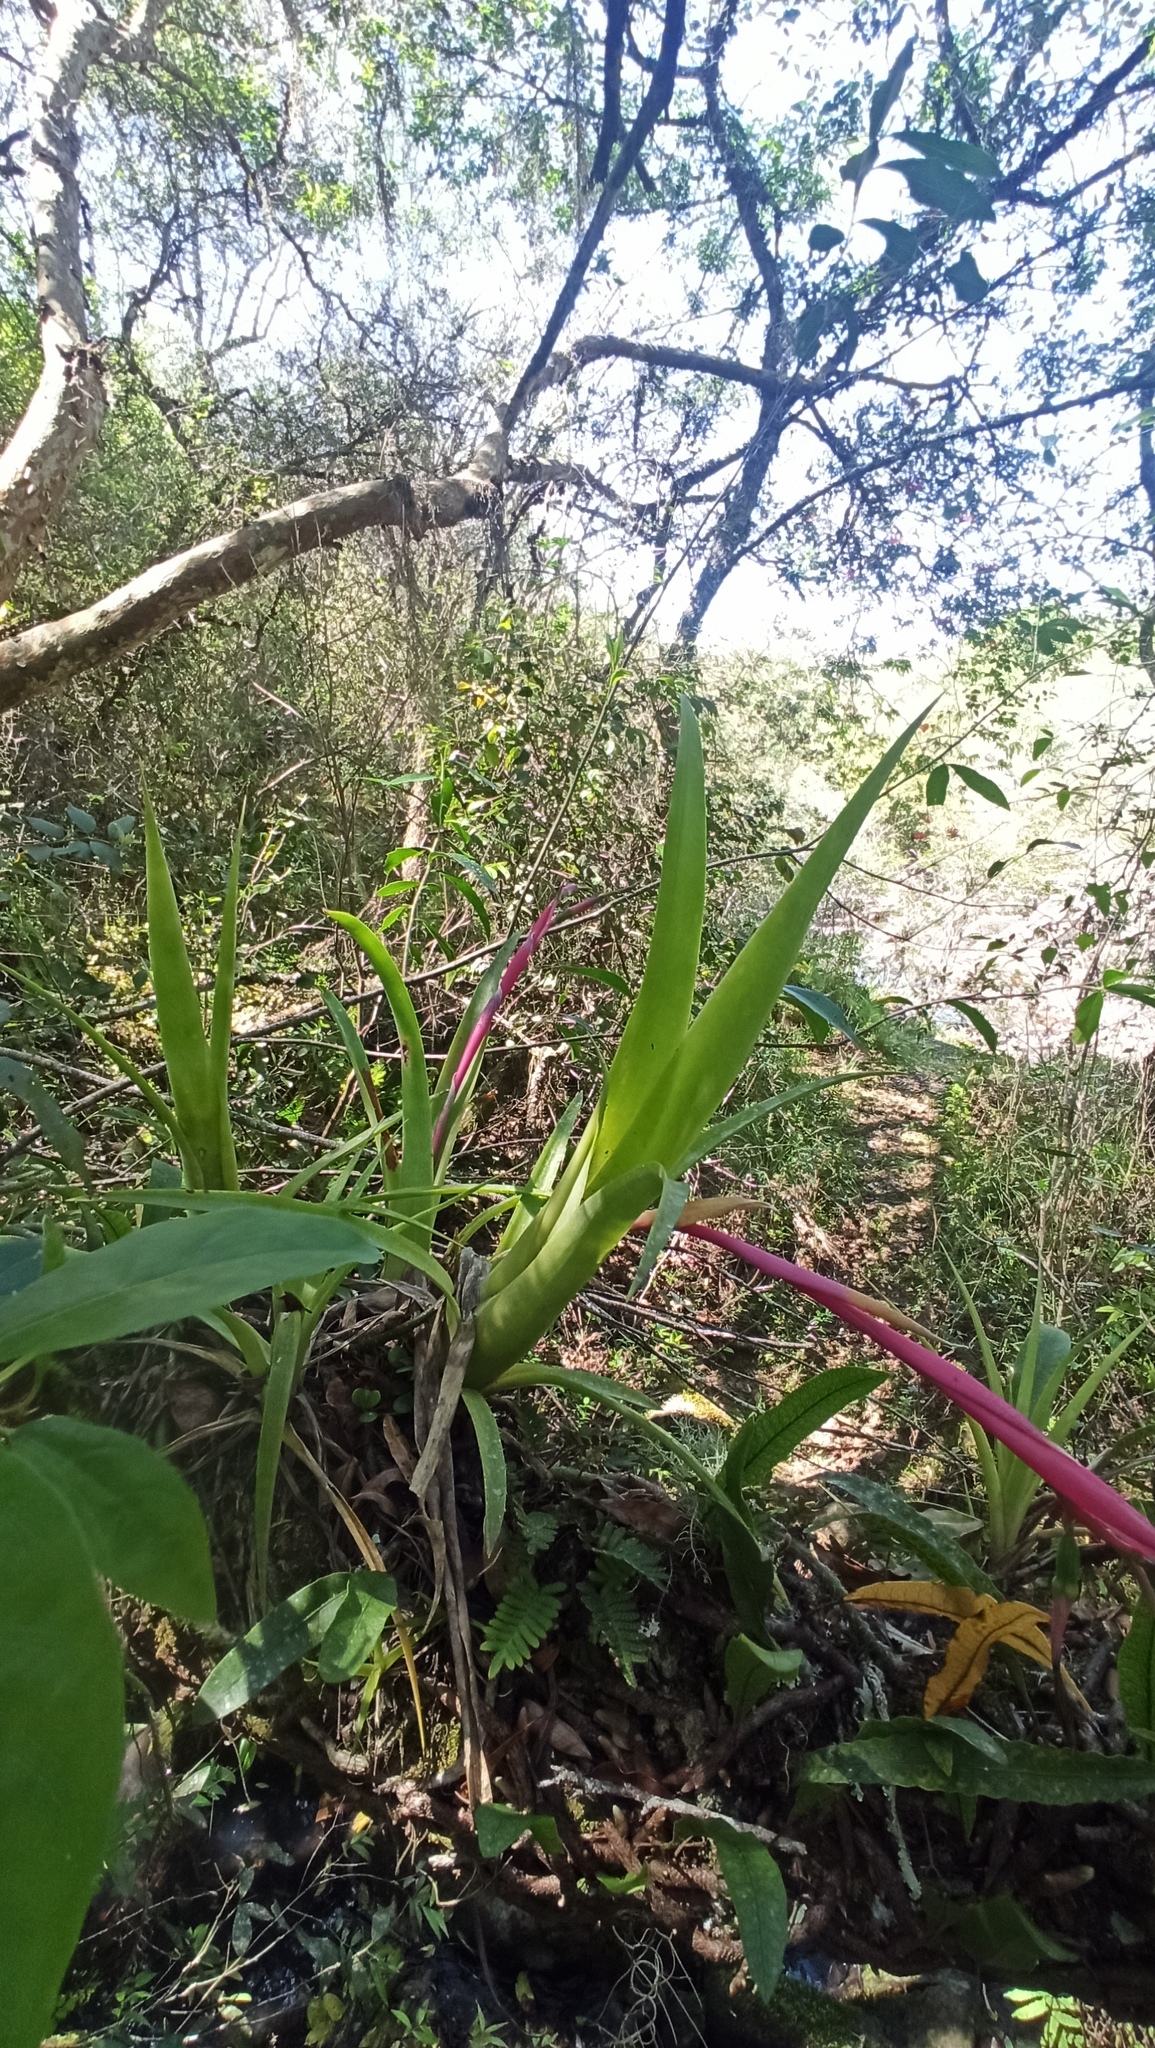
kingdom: Plantae
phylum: Tracheophyta
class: Liliopsida
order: Poales
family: Bromeliaceae
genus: Billbergia
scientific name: Billbergia nutans
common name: Friendship-plant
